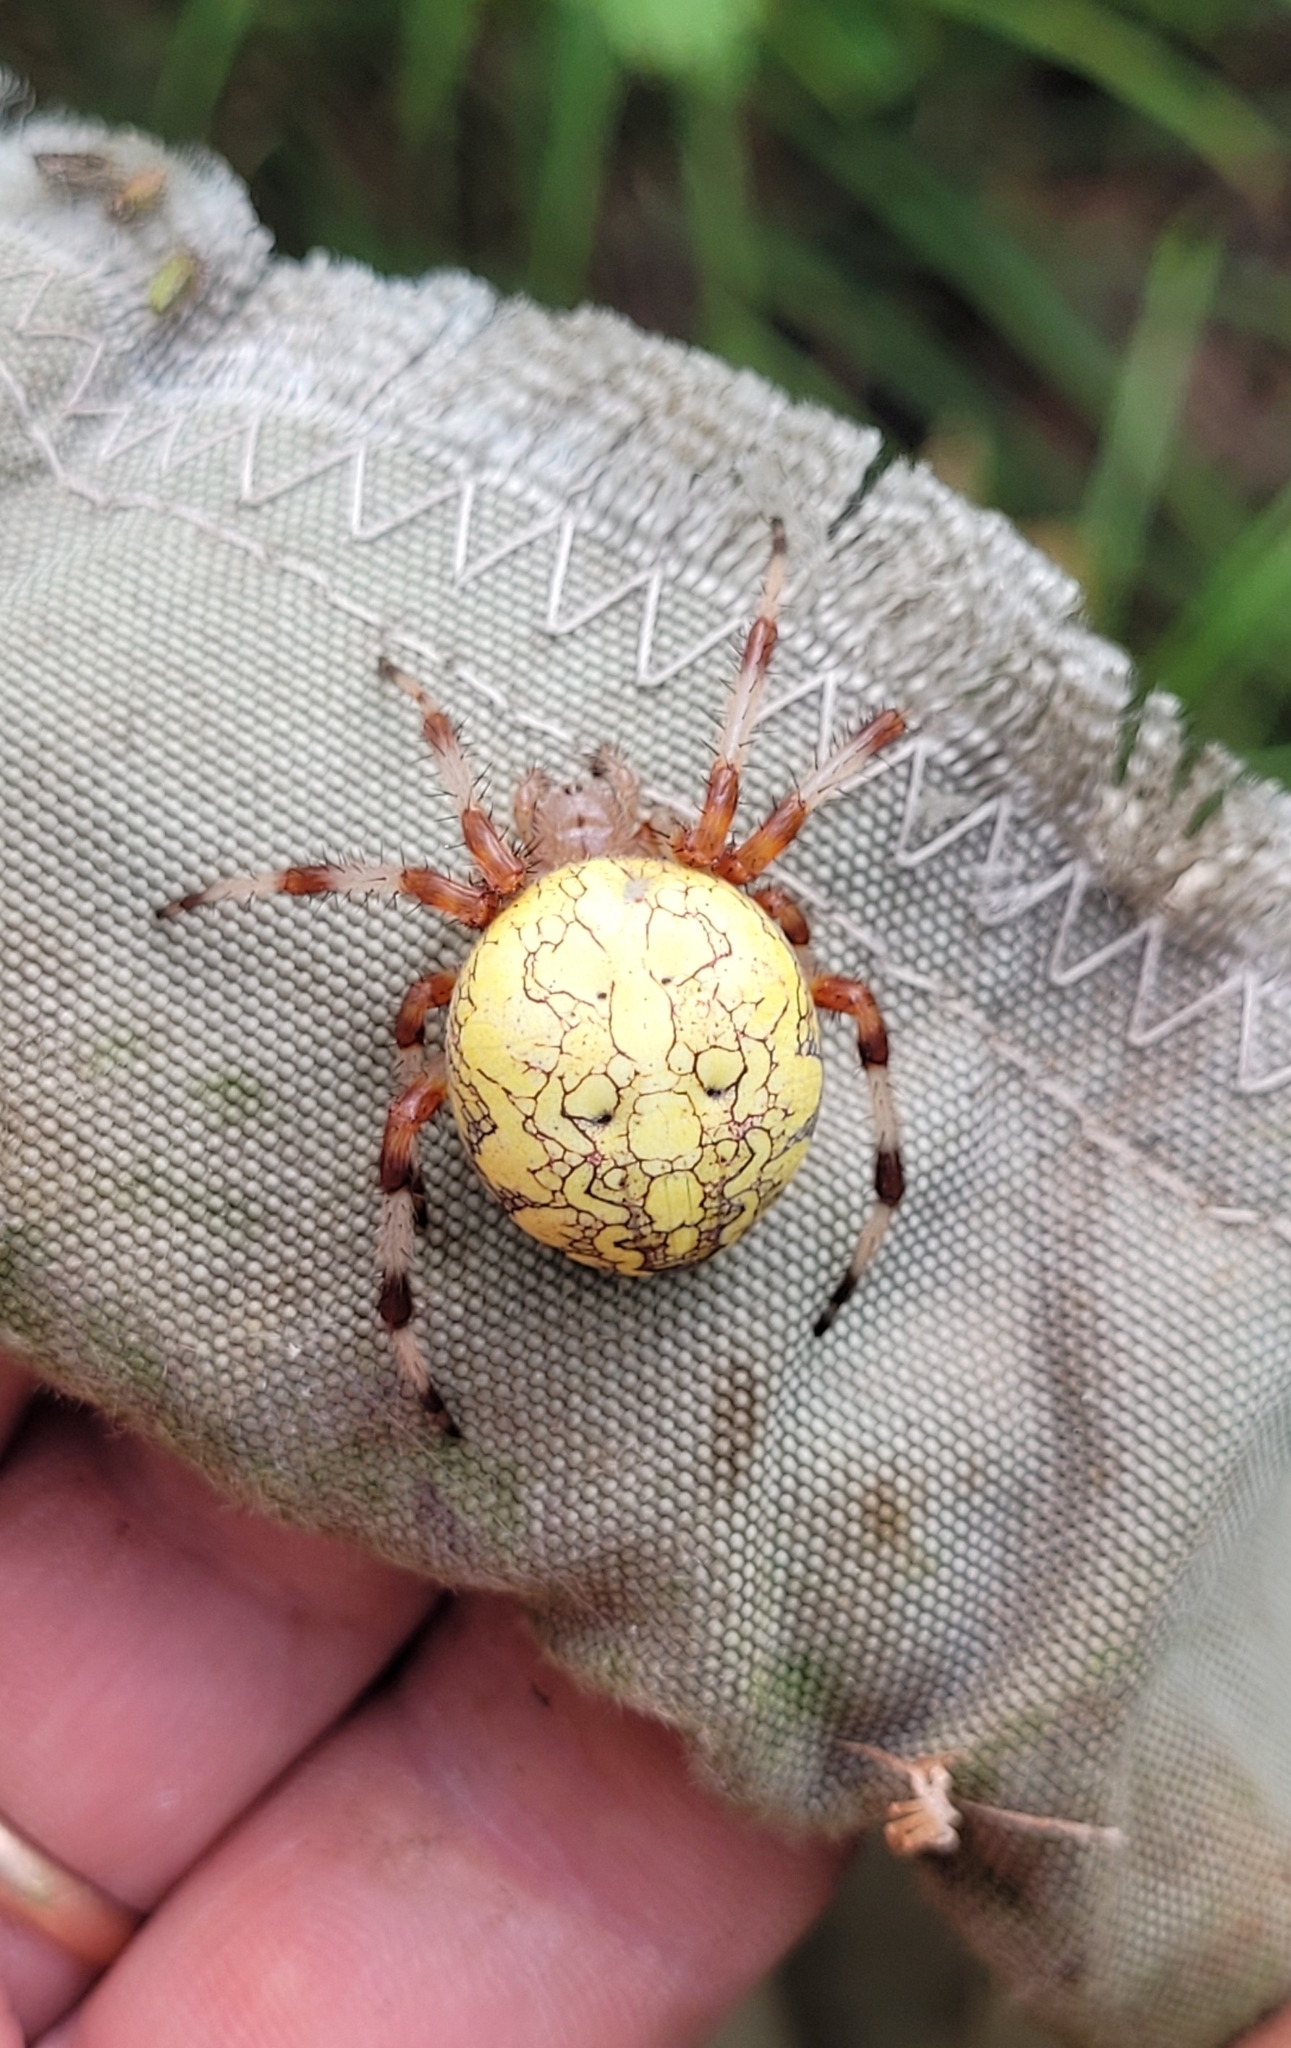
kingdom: Animalia
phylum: Arthropoda
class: Arachnida
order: Araneae
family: Araneidae
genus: Araneus
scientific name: Araneus marmoreus
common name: Marbled orbweaver
